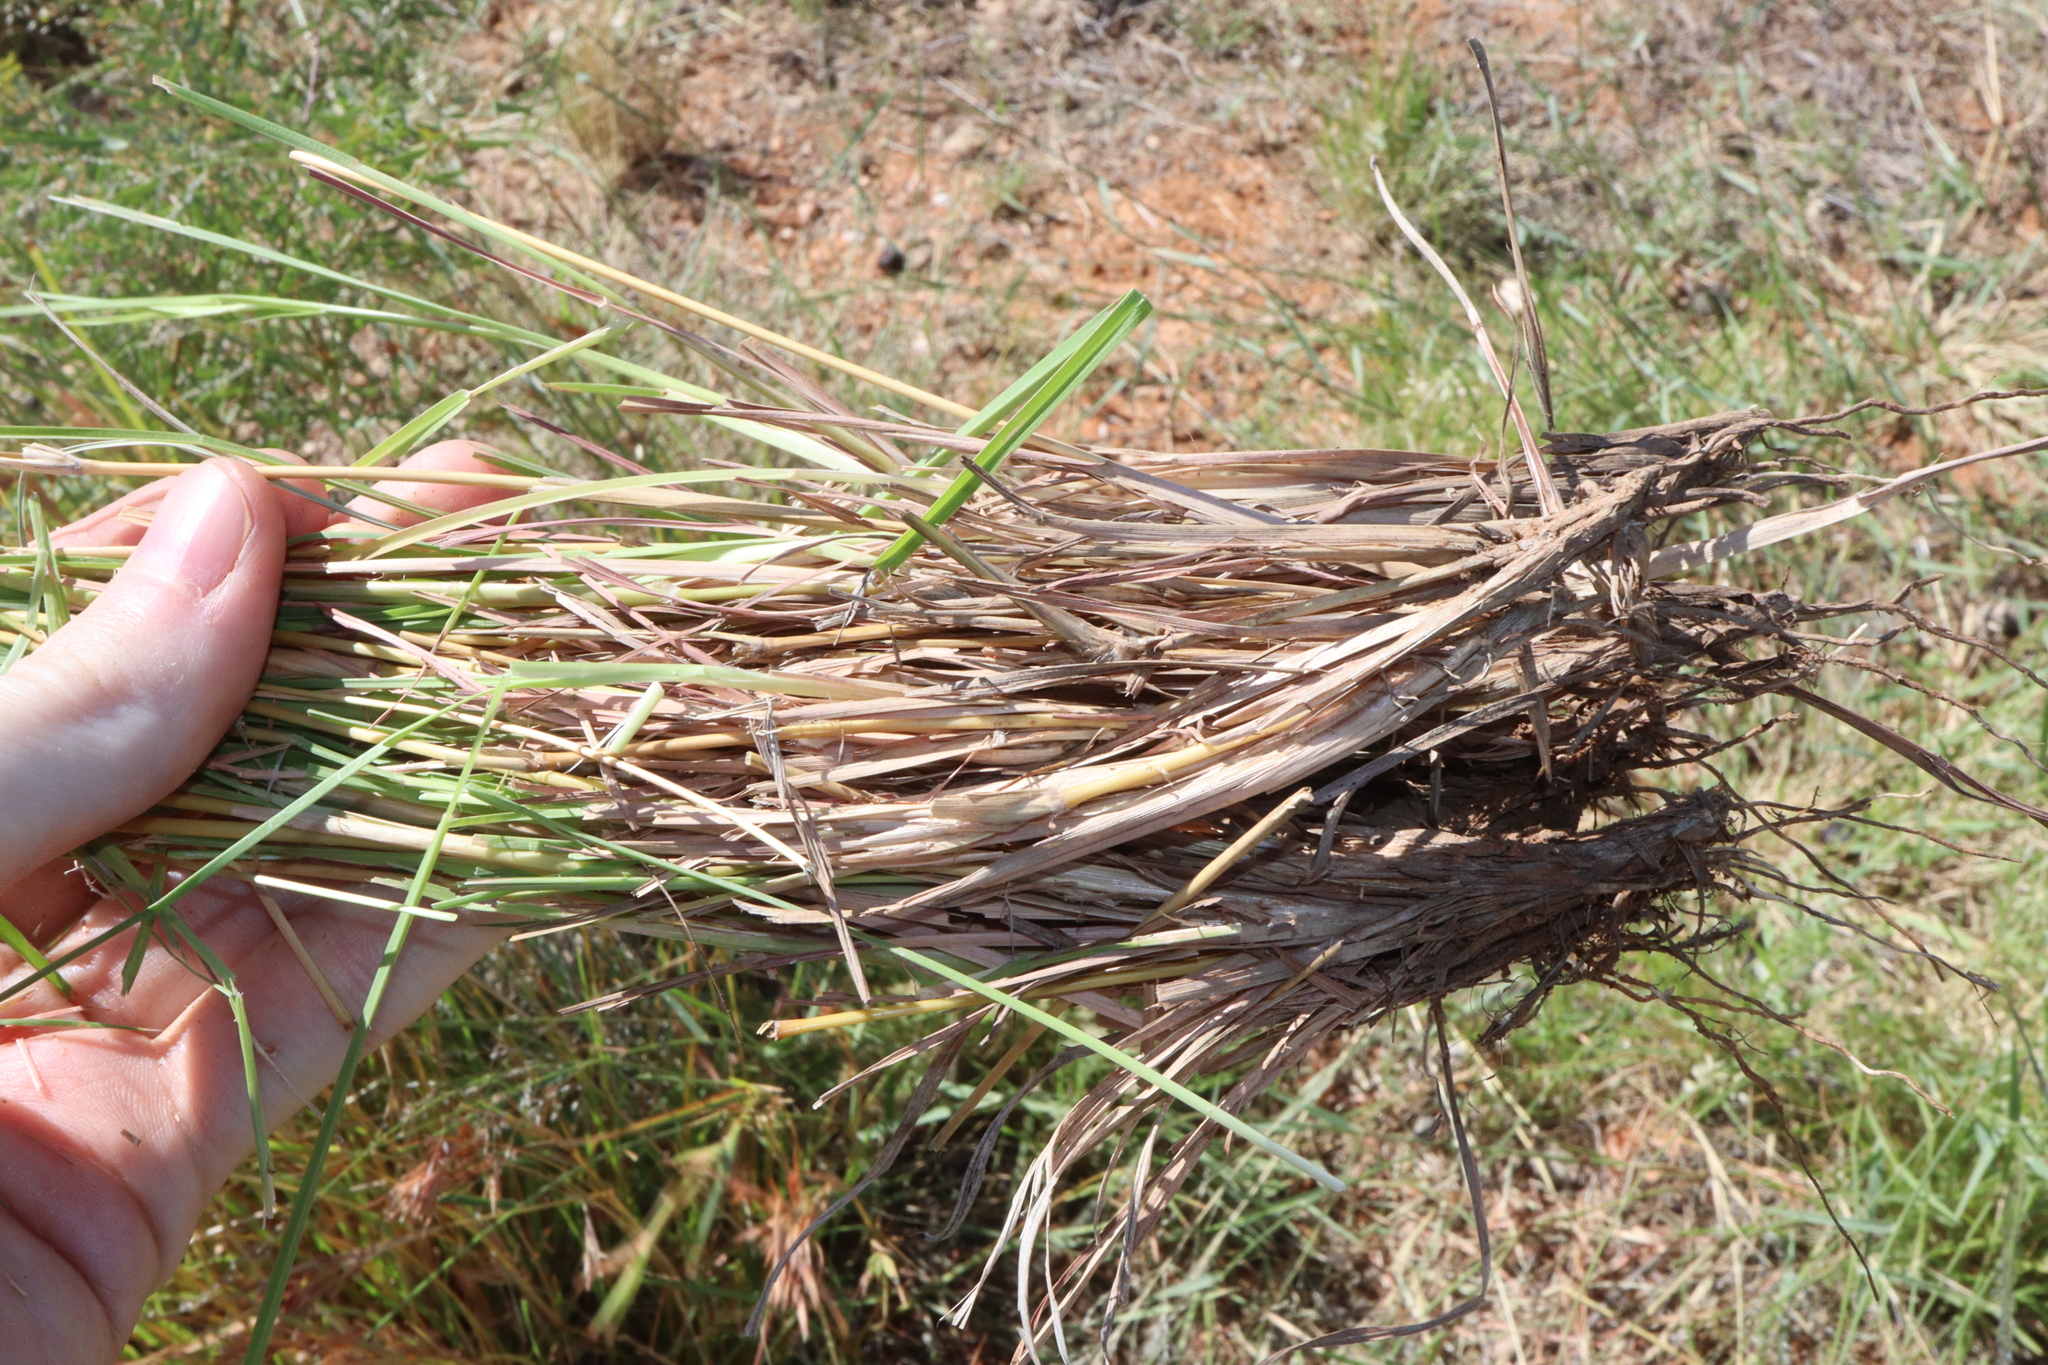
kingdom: Plantae
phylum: Tracheophyta
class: Liliopsida
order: Poales
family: Poaceae
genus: Themeda
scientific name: Themeda triandra
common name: Kangaroo grass
